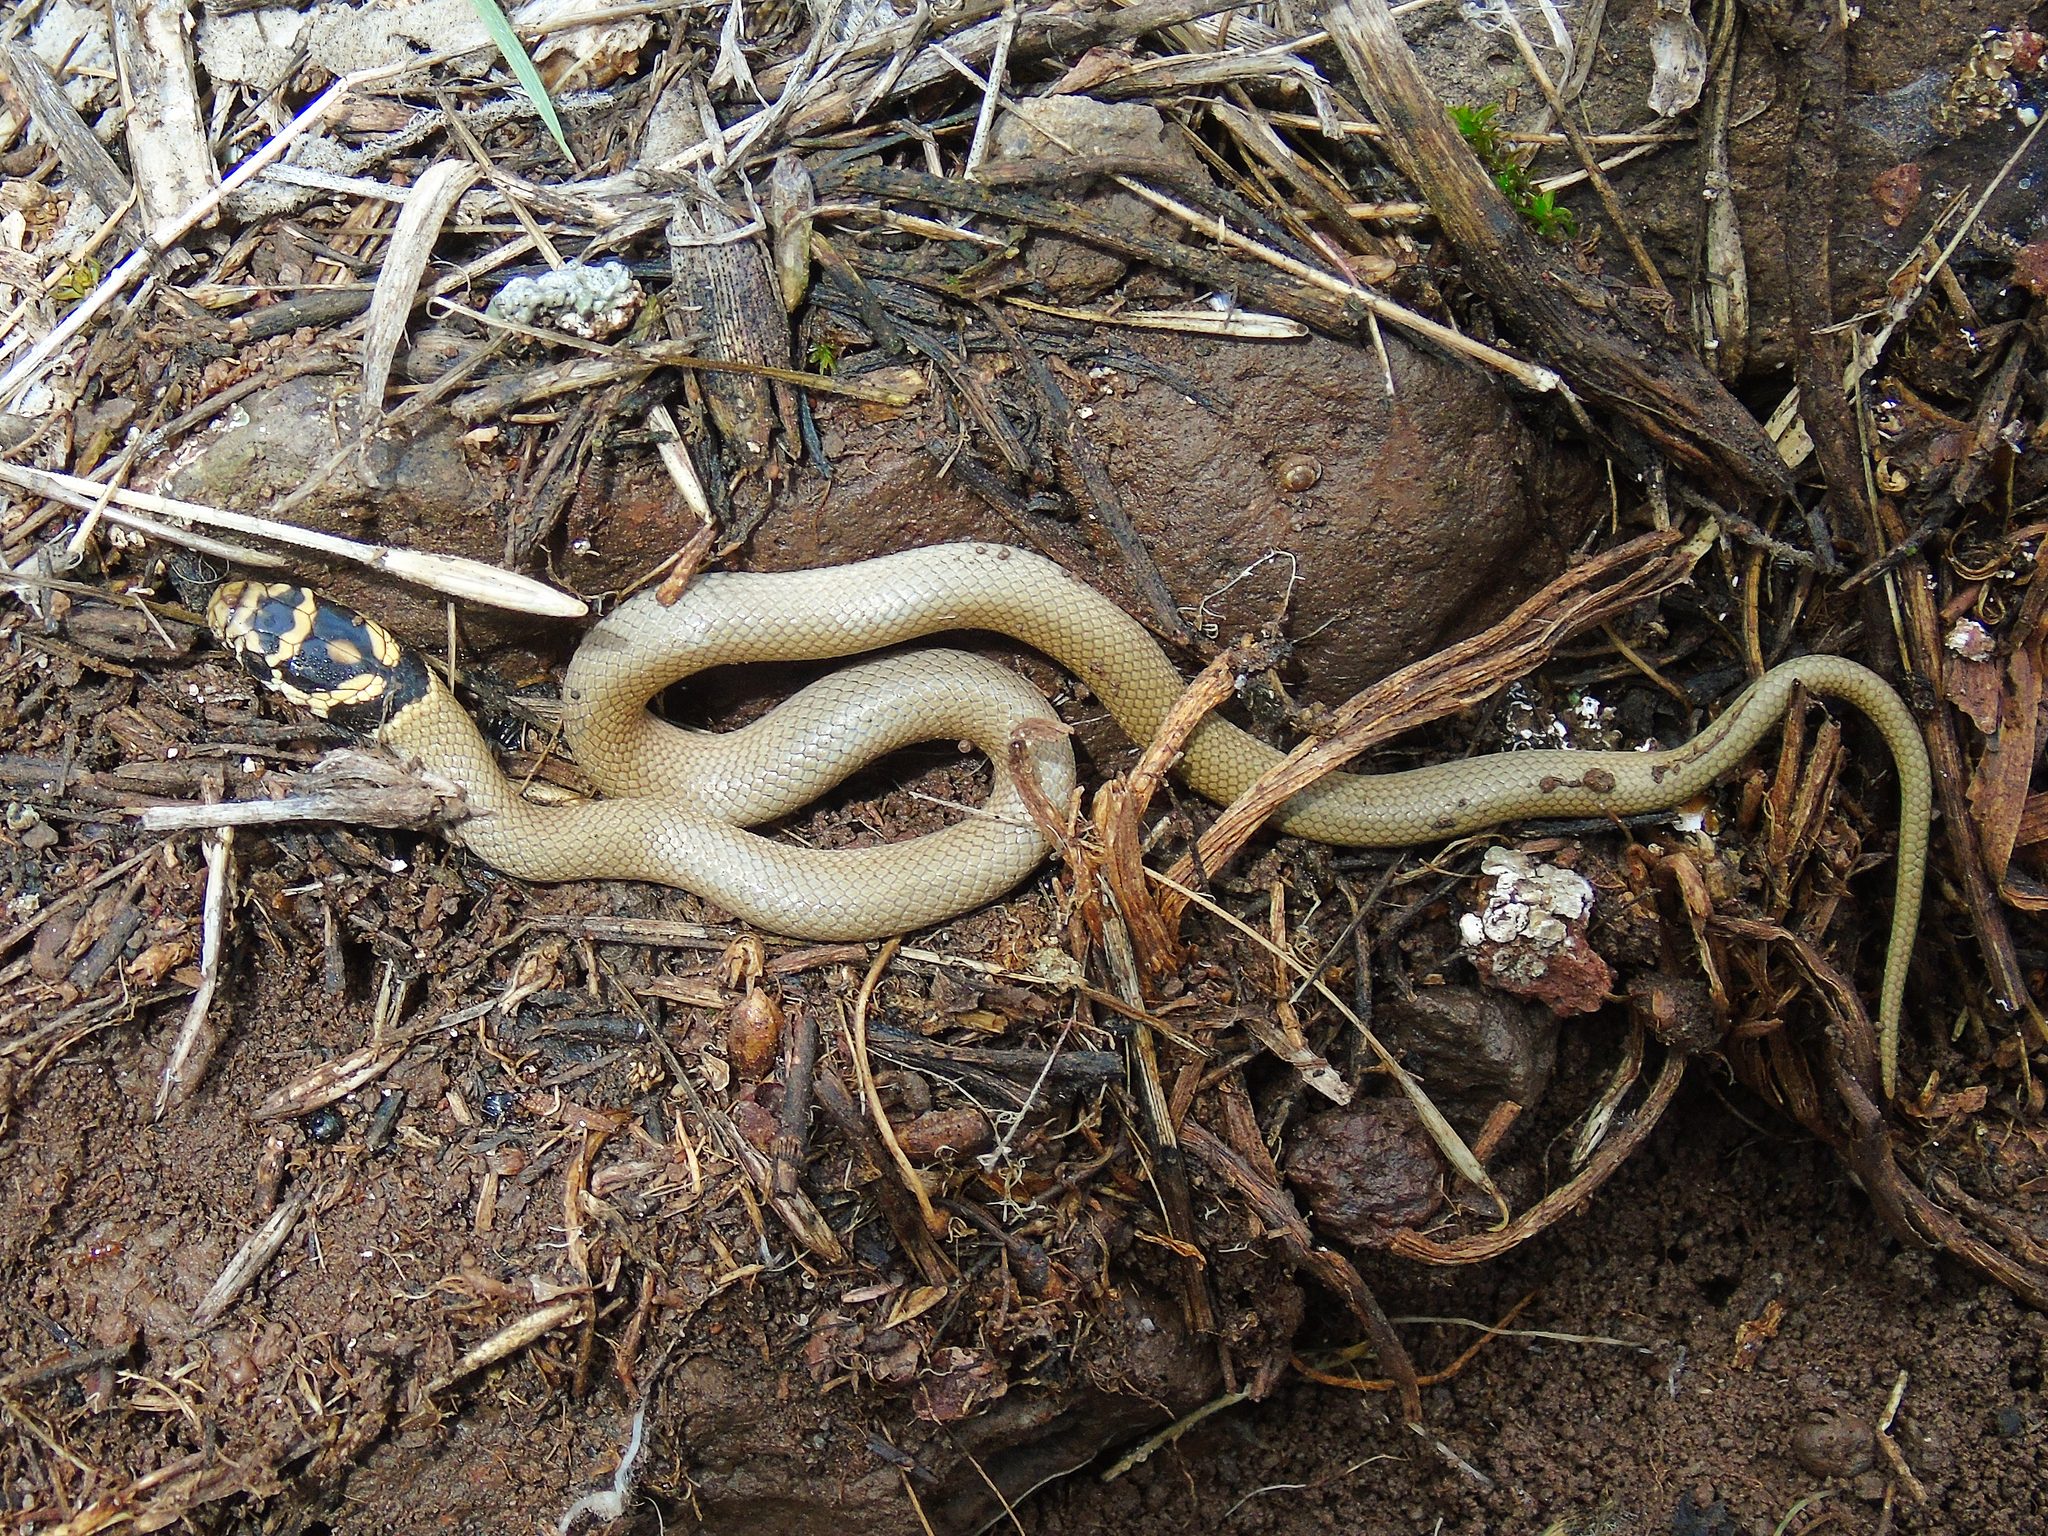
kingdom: Animalia
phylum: Chordata
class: Squamata
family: Colubridae
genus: Eirenis
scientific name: Eirenis modestus
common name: Ring-headed dwarf snake
